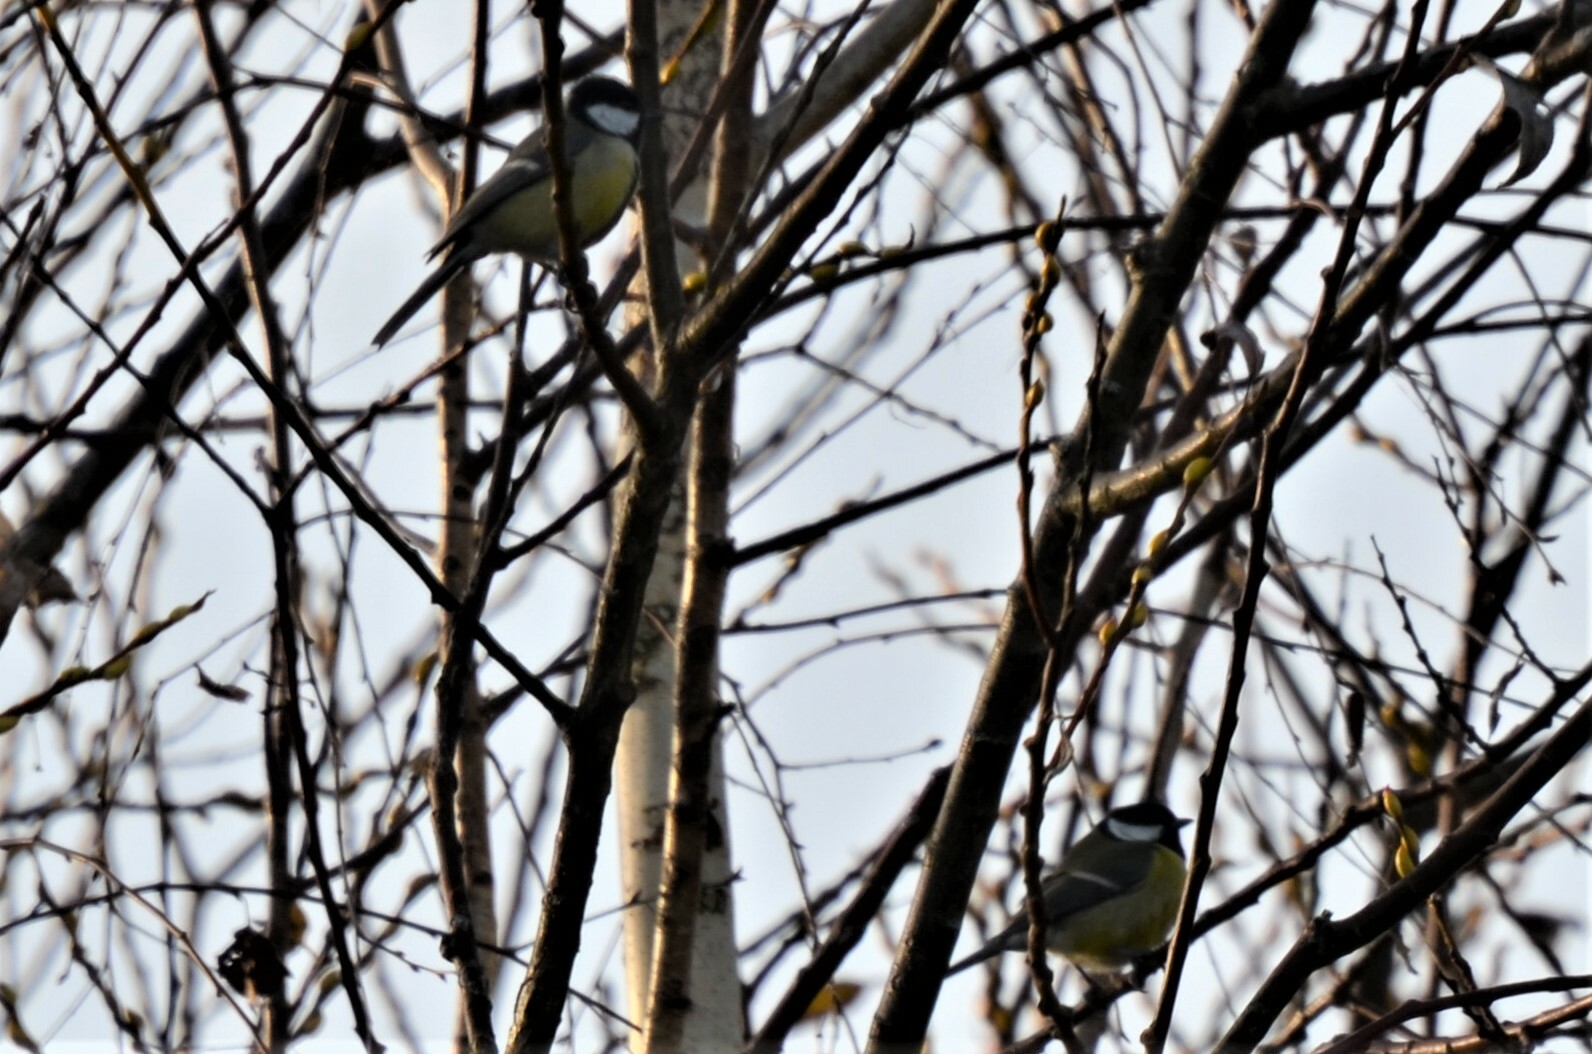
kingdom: Animalia
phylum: Chordata
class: Aves
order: Passeriformes
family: Paridae
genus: Parus
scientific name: Parus major
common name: Great tit
